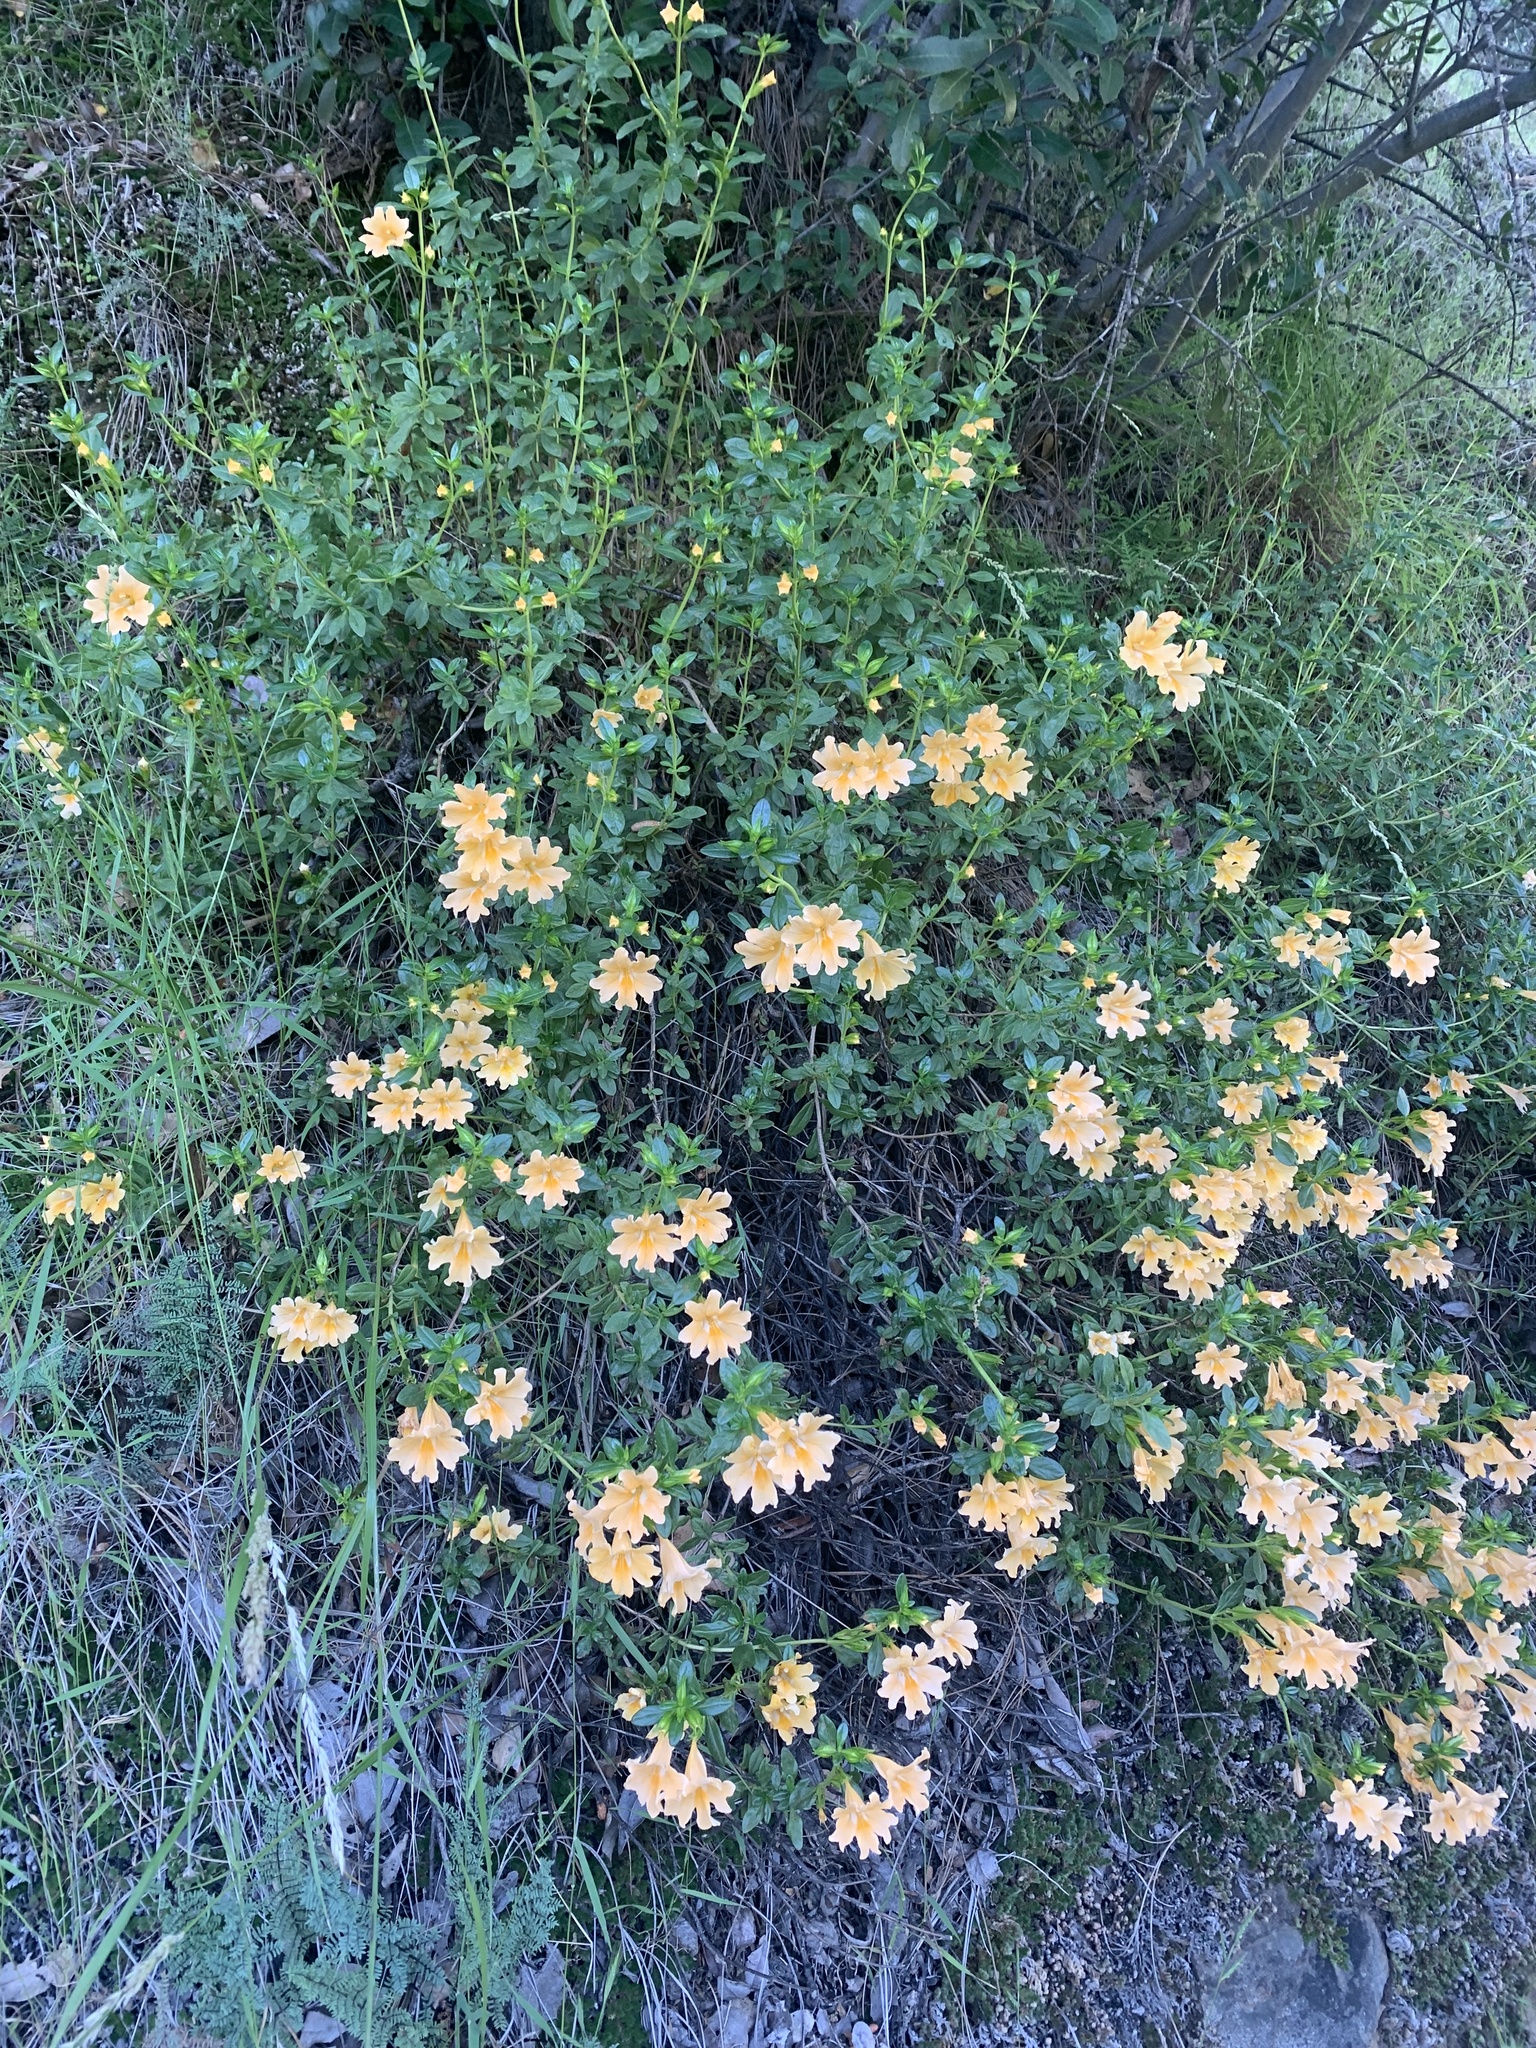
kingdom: Plantae
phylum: Tracheophyta
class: Magnoliopsida
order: Lamiales
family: Phrymaceae
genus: Diplacus
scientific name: Diplacus grandiflorus
